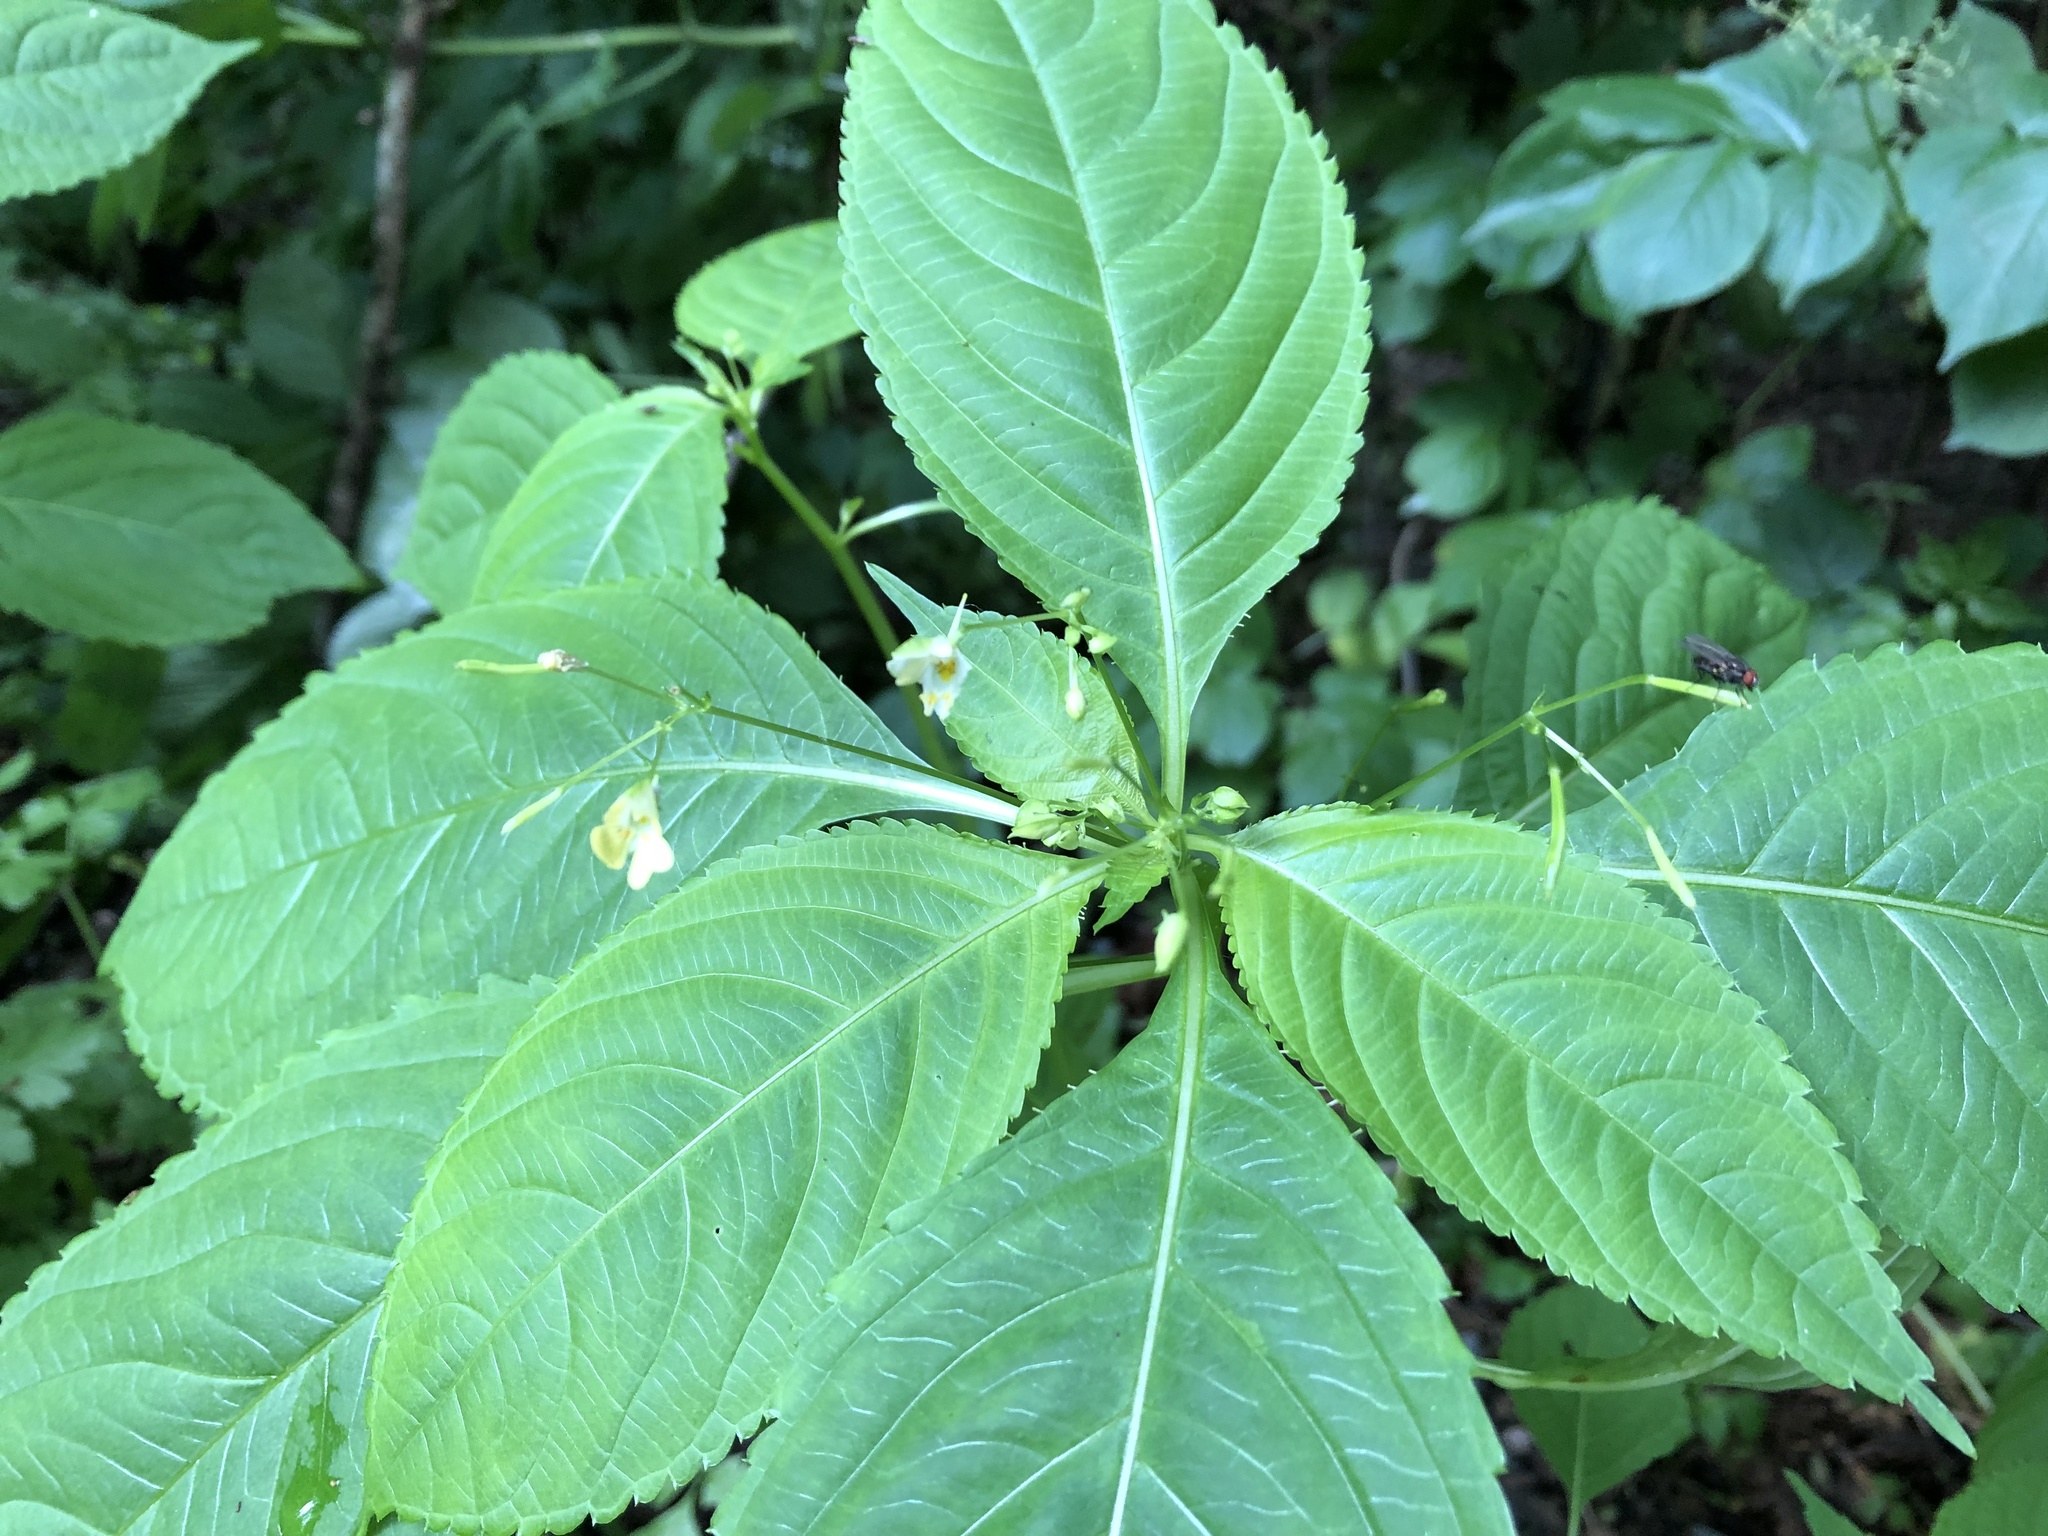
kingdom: Plantae
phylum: Tracheophyta
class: Magnoliopsida
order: Ericales
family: Balsaminaceae
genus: Impatiens
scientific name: Impatiens parviflora
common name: Small balsam
